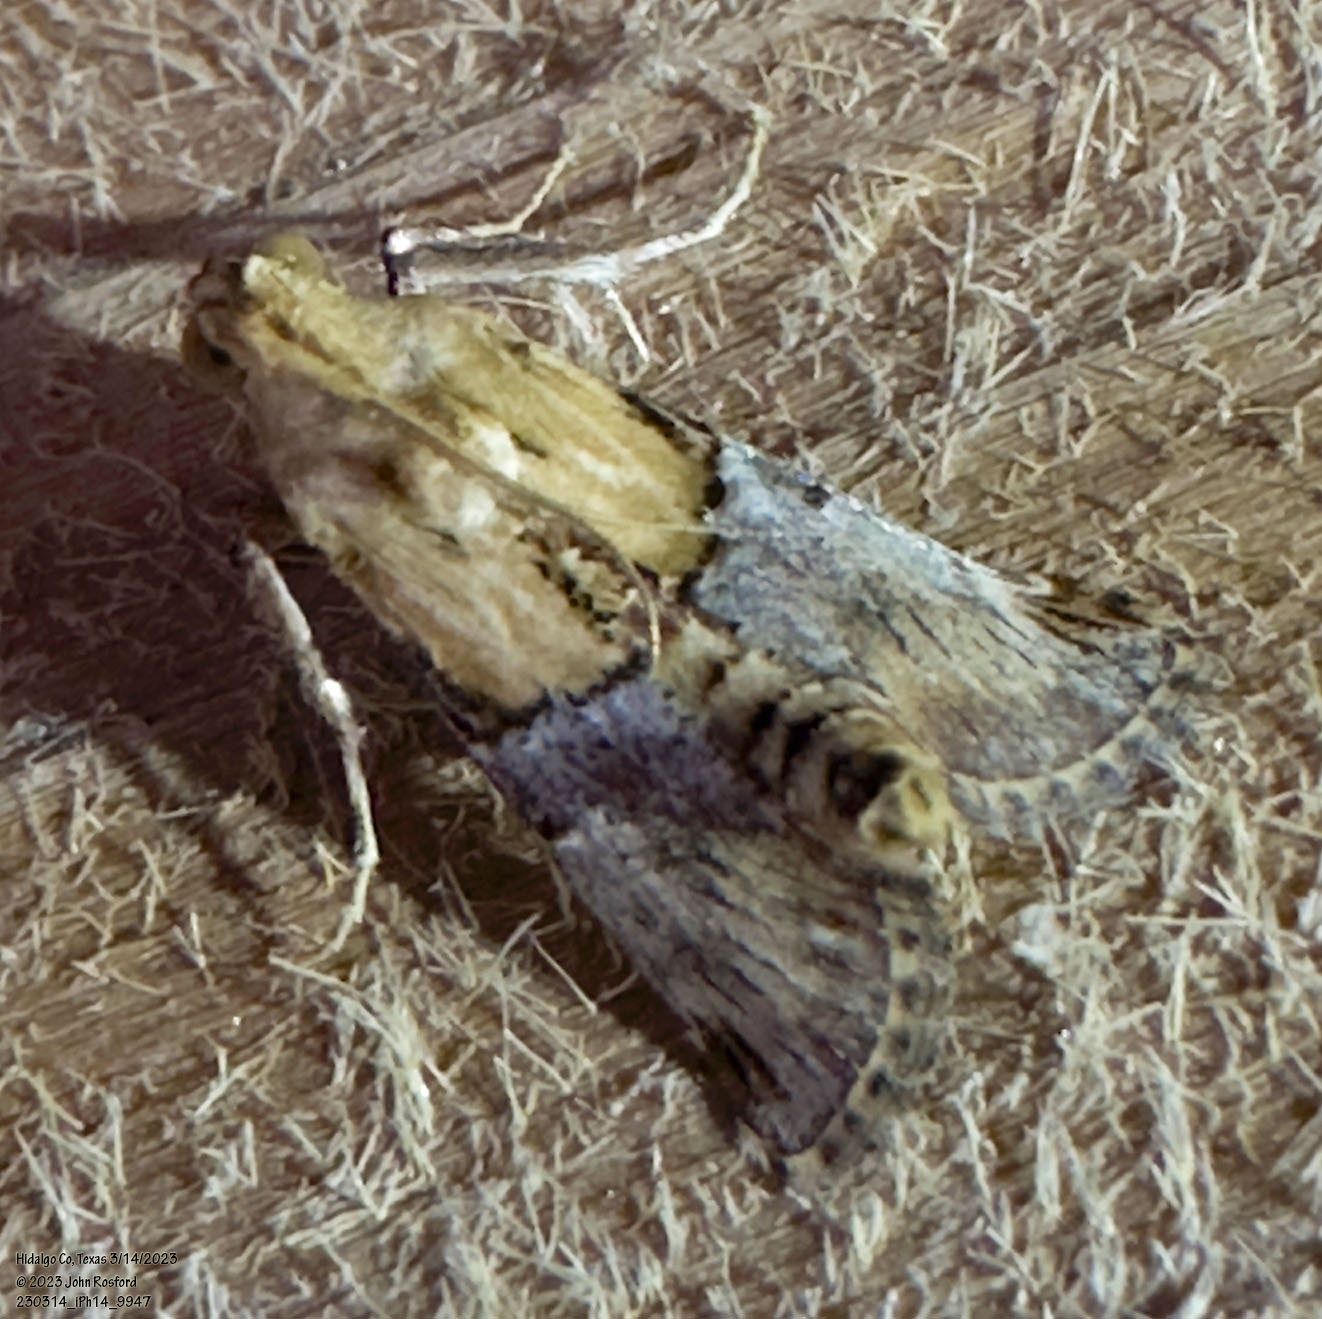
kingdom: Animalia
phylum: Arthropoda
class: Insecta
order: Lepidoptera
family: Pyralidae
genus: Cacozelia
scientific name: Cacozelia elegans
